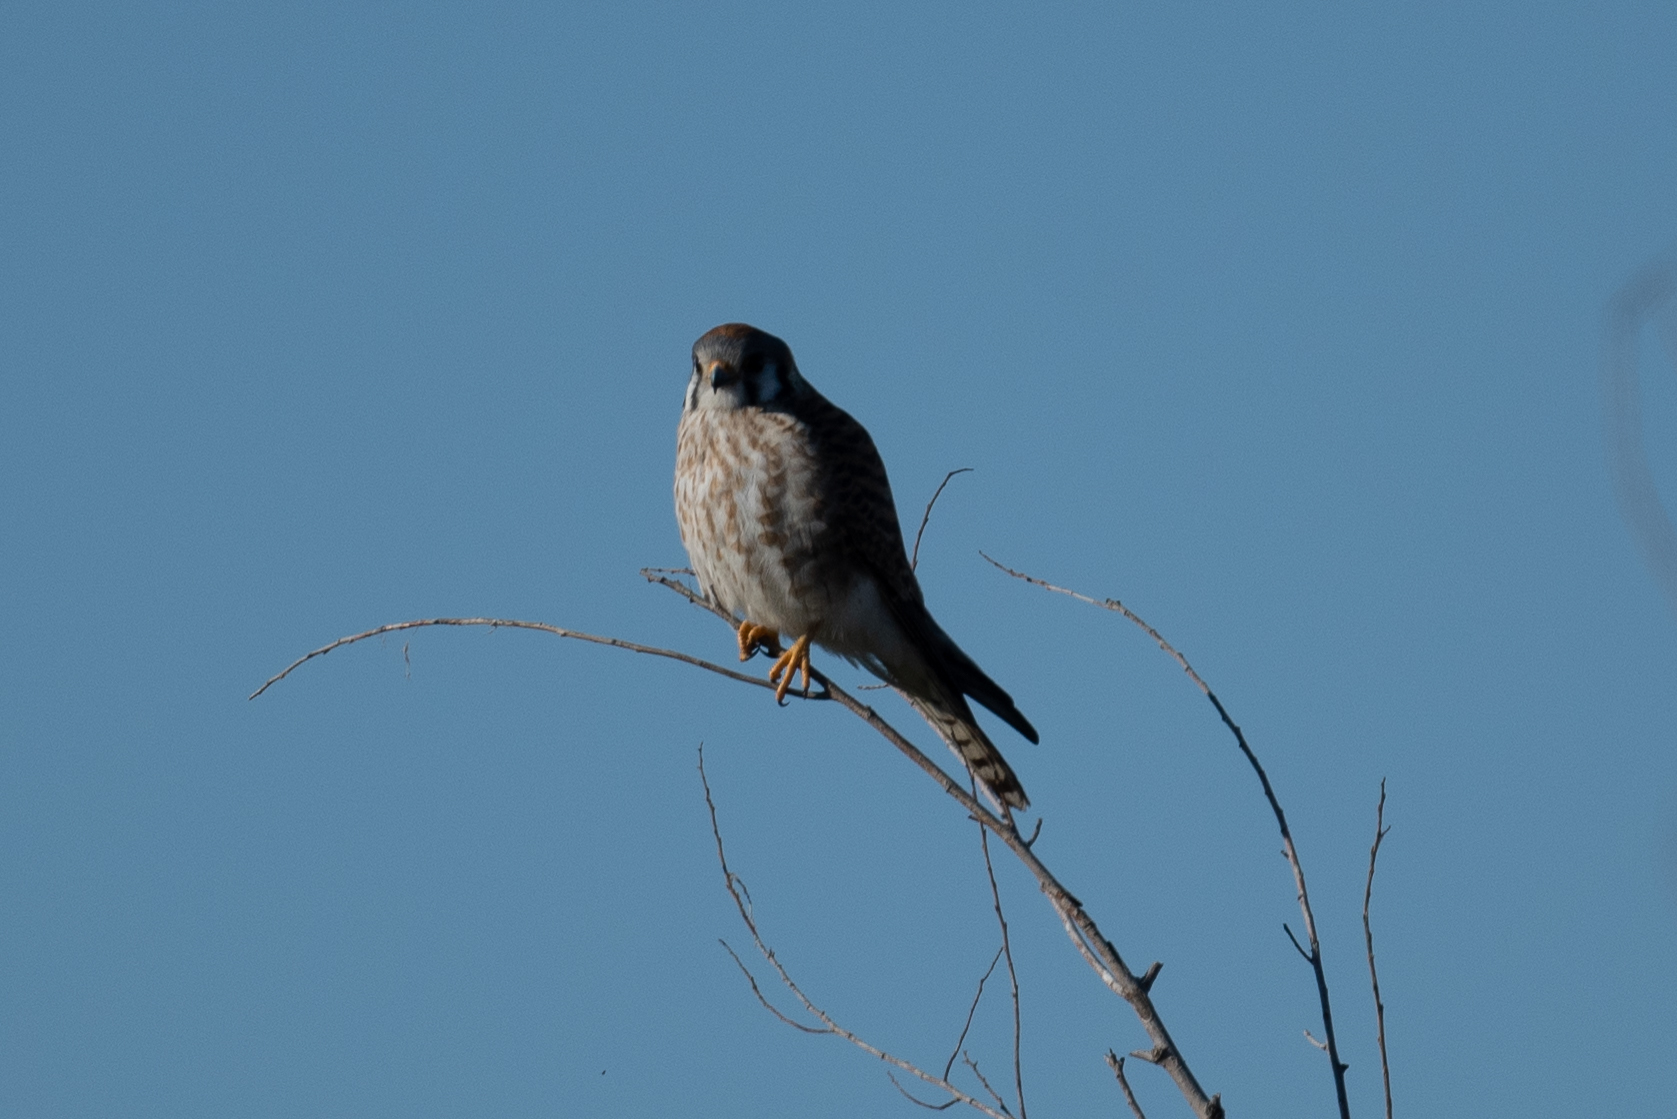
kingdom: Animalia
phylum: Chordata
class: Aves
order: Falconiformes
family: Falconidae
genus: Falco
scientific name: Falco sparverius
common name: American kestrel
